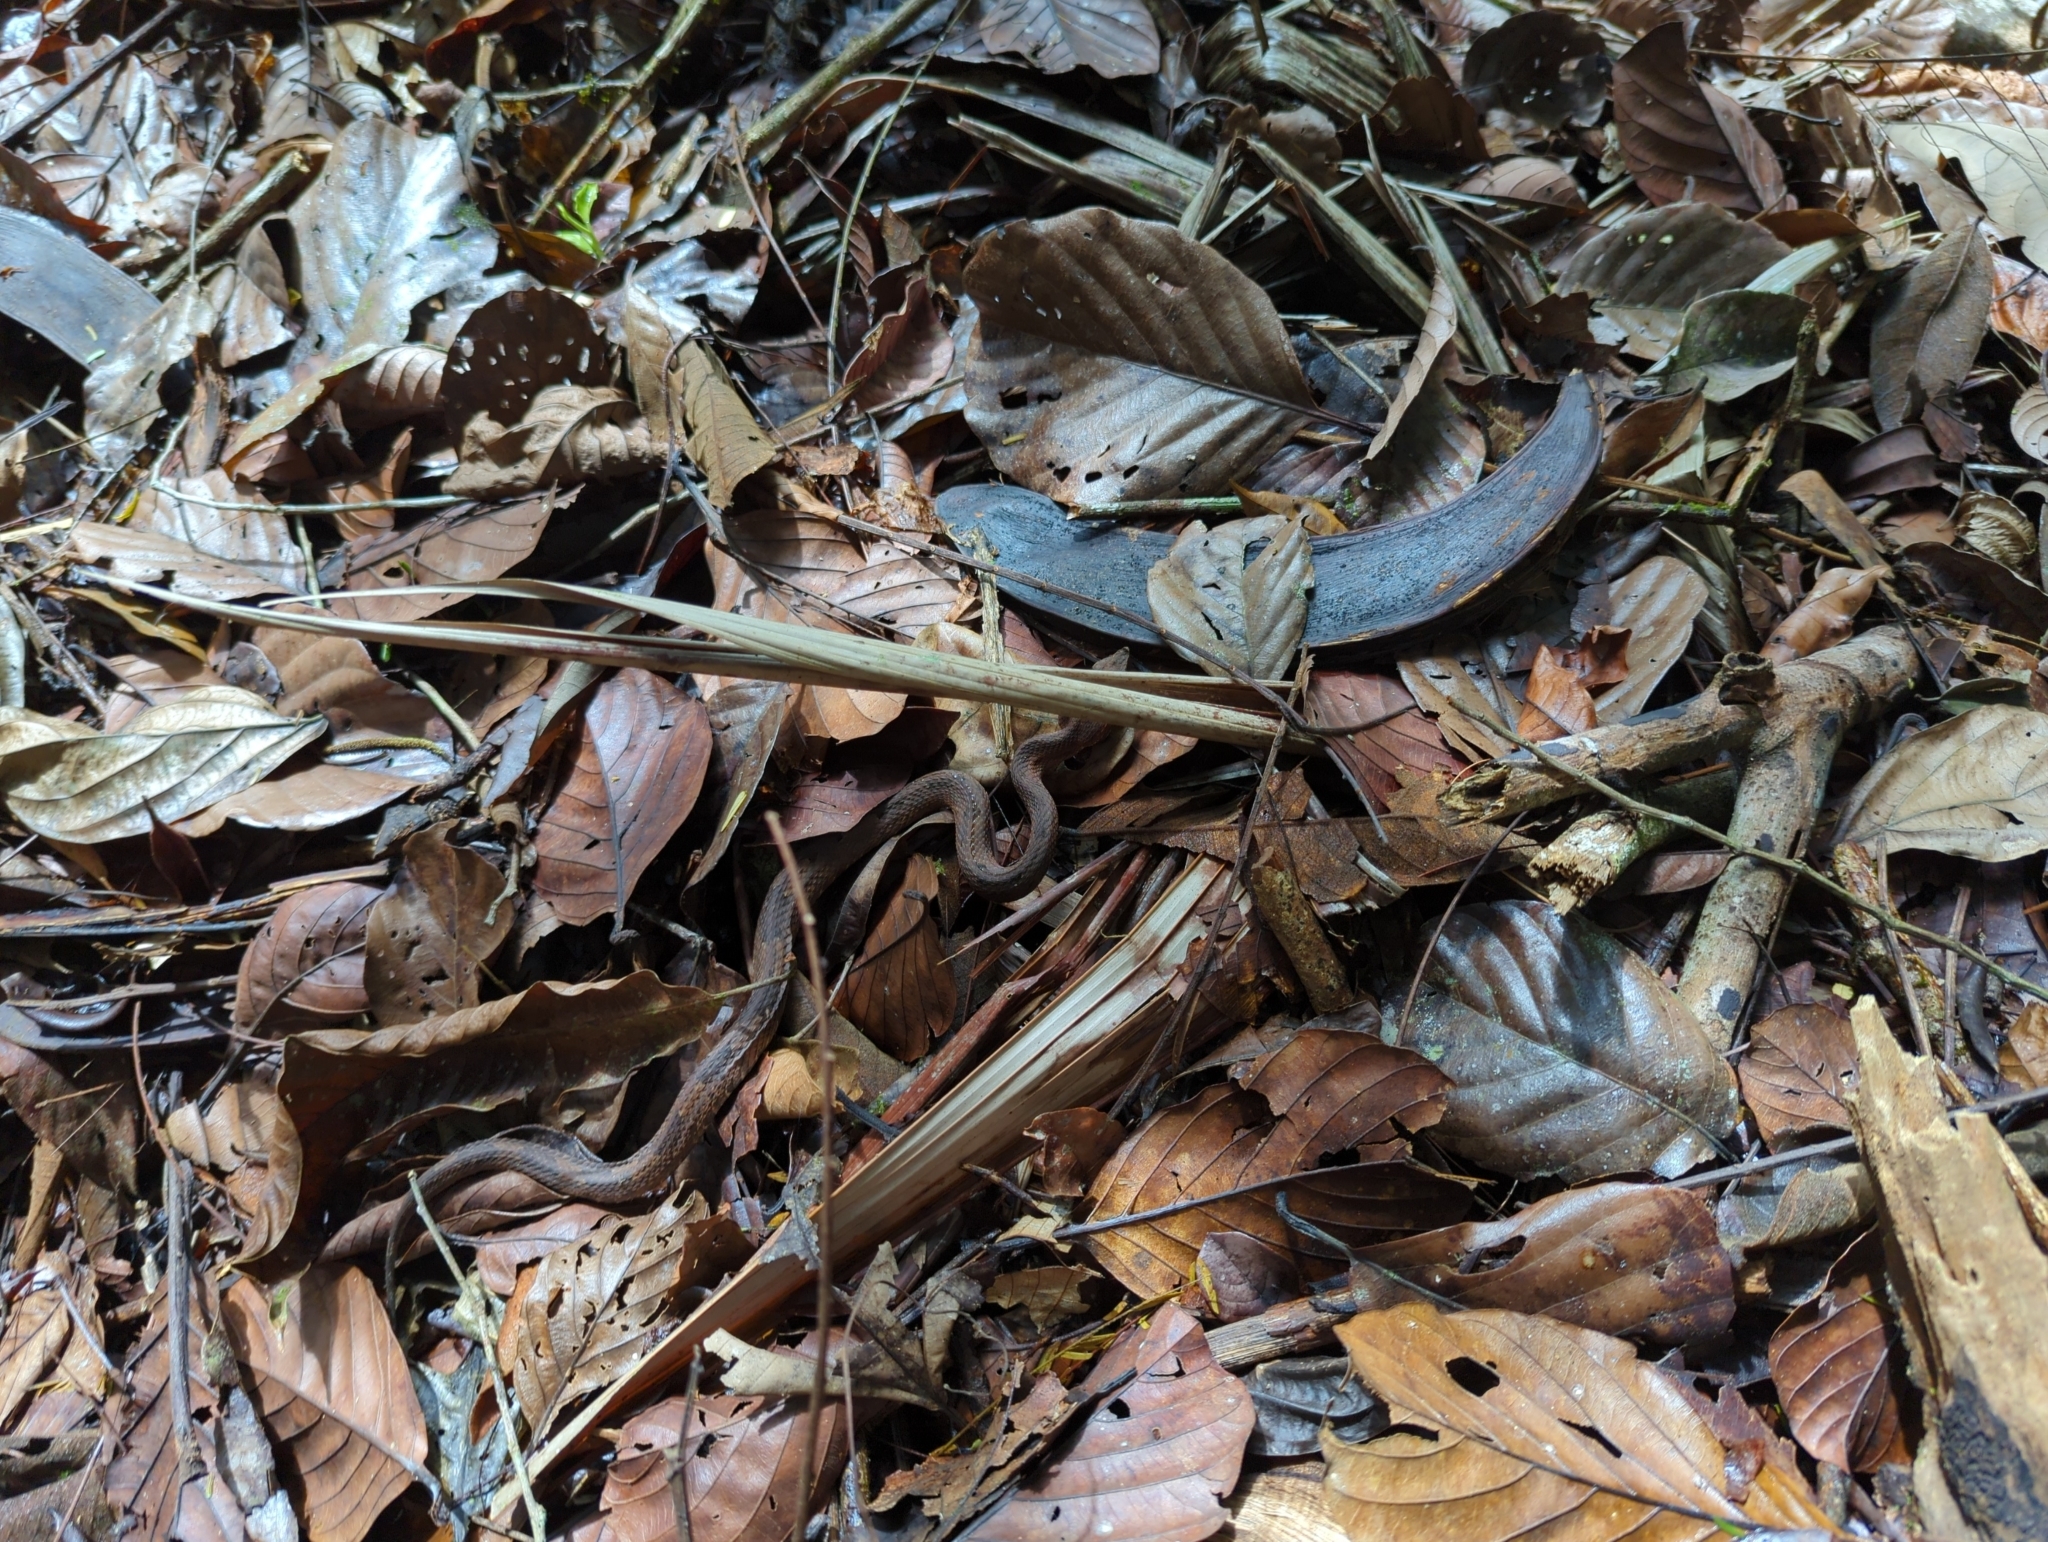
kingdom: Animalia
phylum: Chordata
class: Squamata
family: Viperidae
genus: Porthidium
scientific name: Porthidium nasutum
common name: Hognosed pit viper
